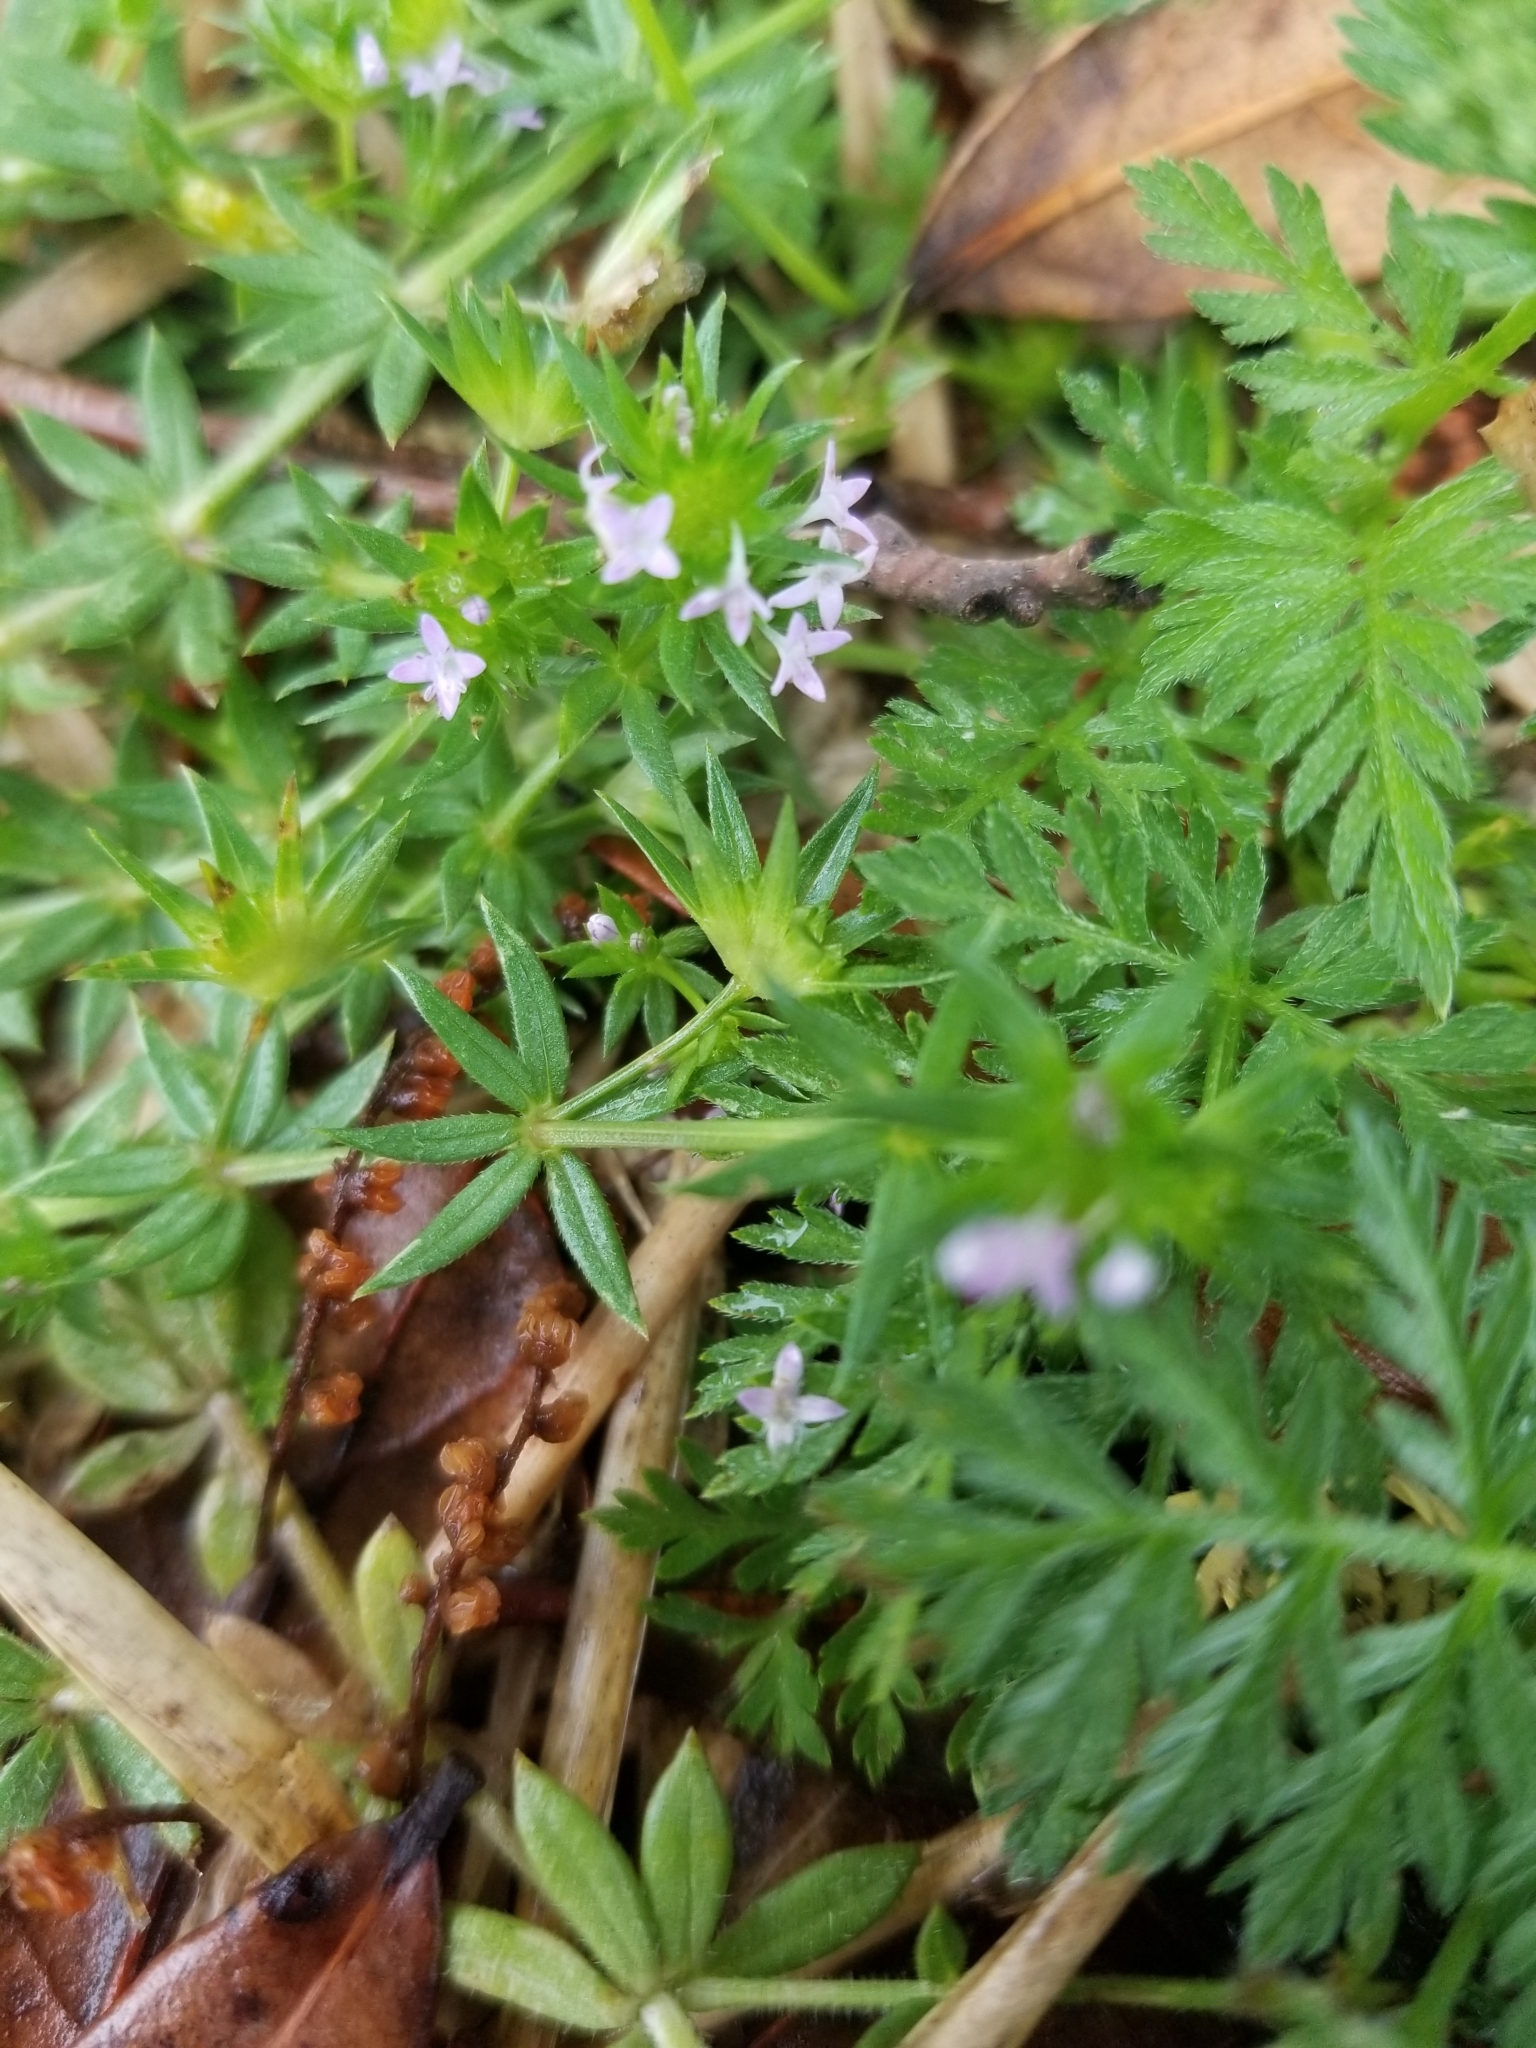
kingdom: Plantae
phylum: Tracheophyta
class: Magnoliopsida
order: Gentianales
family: Rubiaceae
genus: Sherardia
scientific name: Sherardia arvensis
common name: Field madder
